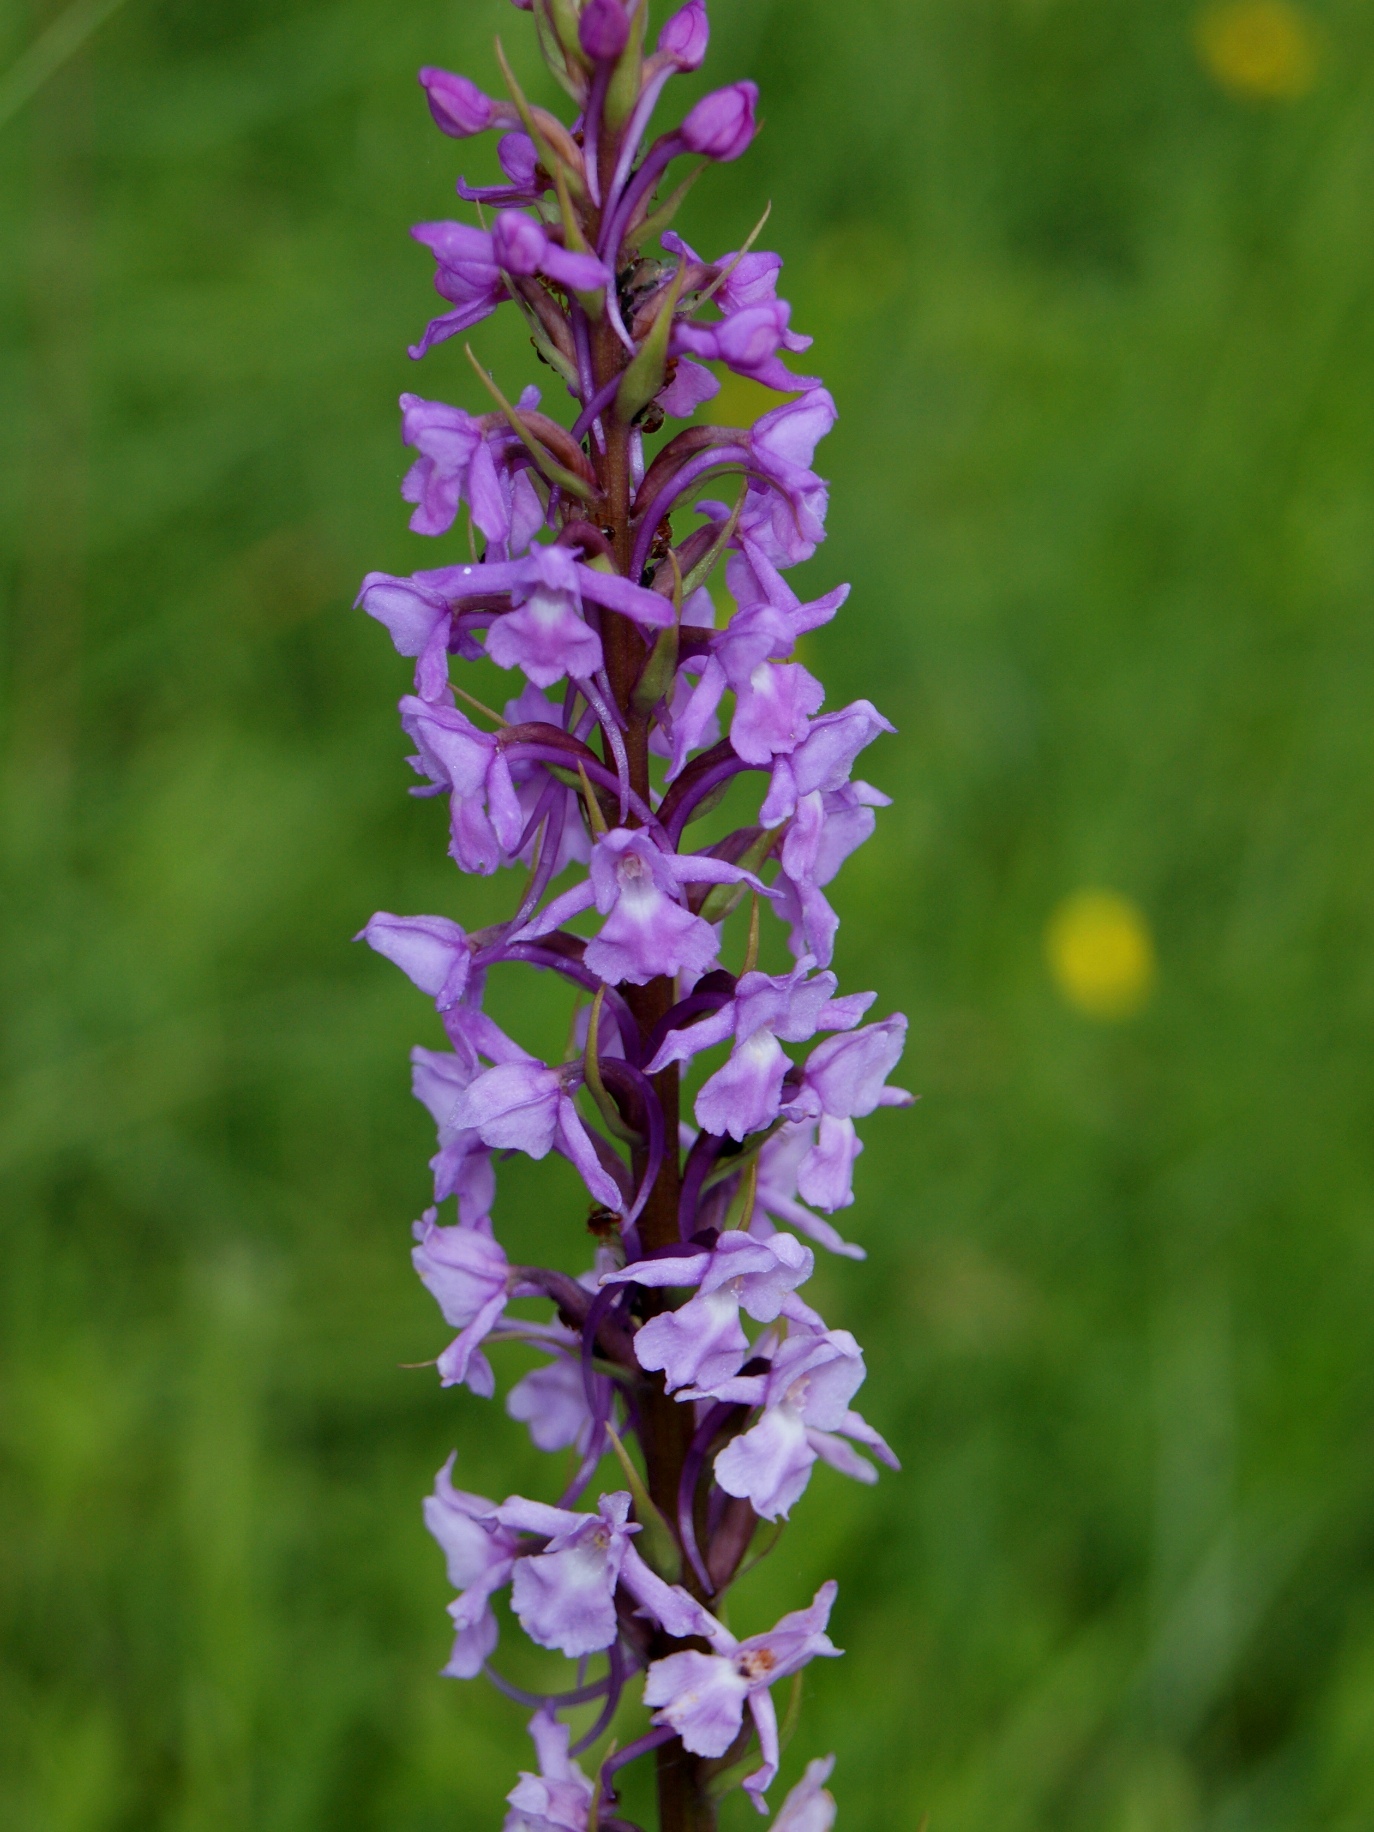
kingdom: Plantae
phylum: Tracheophyta
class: Liliopsida
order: Asparagales
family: Orchidaceae
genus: Gymnadenia
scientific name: Gymnadenia conopsea
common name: Fragrant orchid
